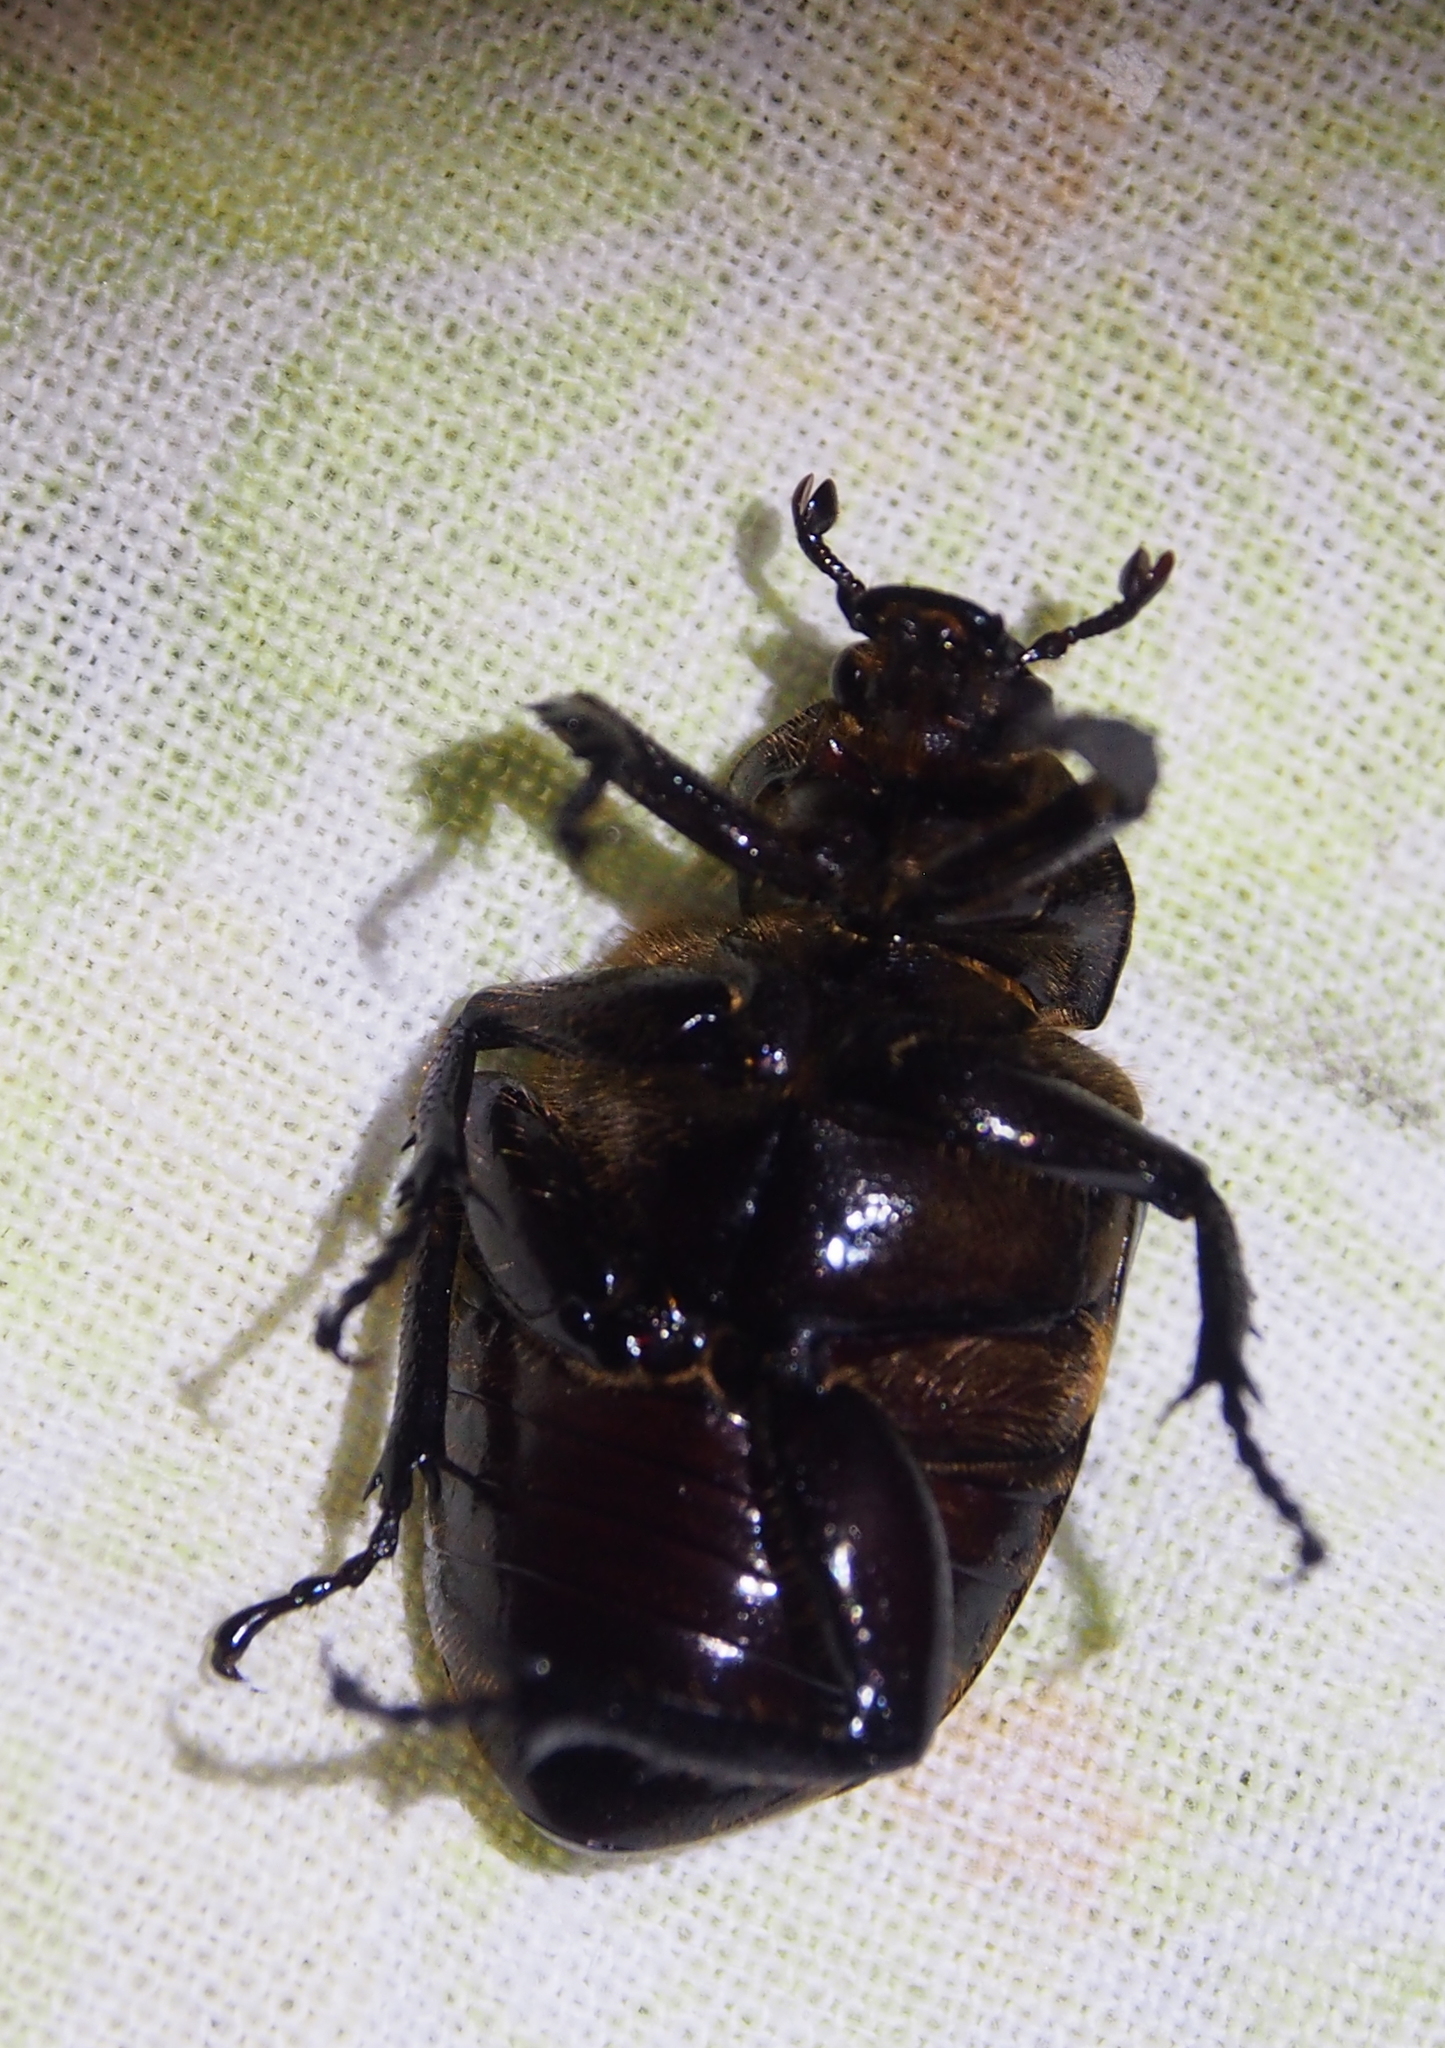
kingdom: Animalia
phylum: Arthropoda
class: Insecta
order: Coleoptera
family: Scarabaeidae
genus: Osmoderma
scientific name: Osmoderma eremicola
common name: Hermit flower beetle
